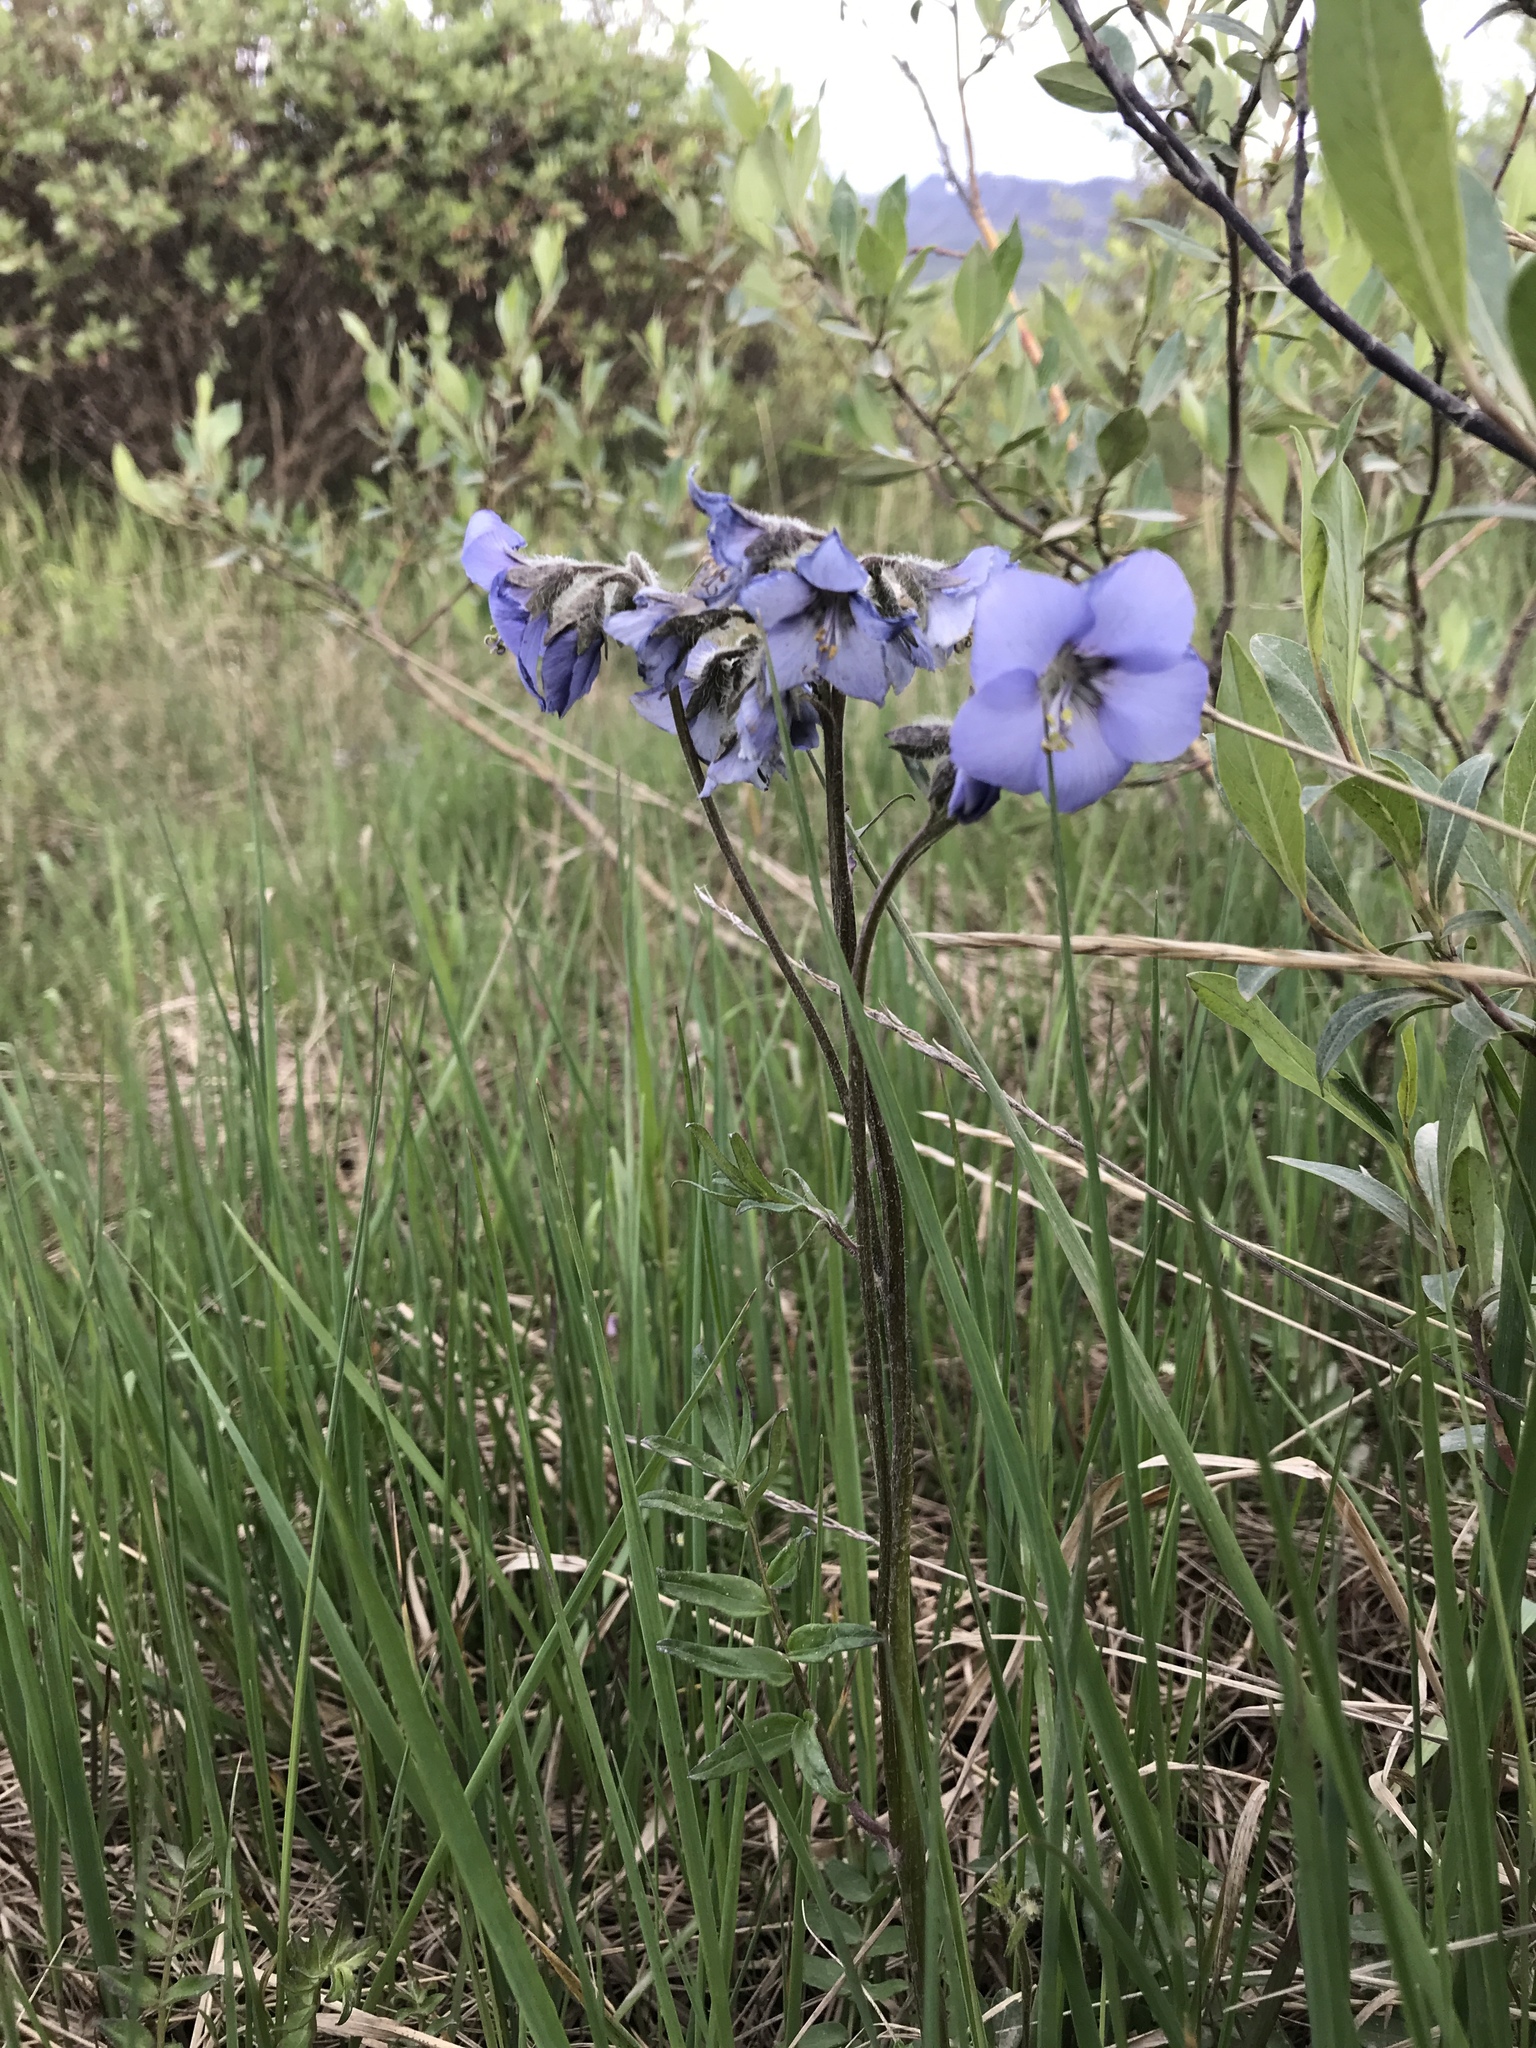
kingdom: Plantae
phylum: Tracheophyta
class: Magnoliopsida
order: Ericales
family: Polemoniaceae
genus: Polemonium
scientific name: Polemonium acutiflorum
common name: Tall jacob's-ladder
